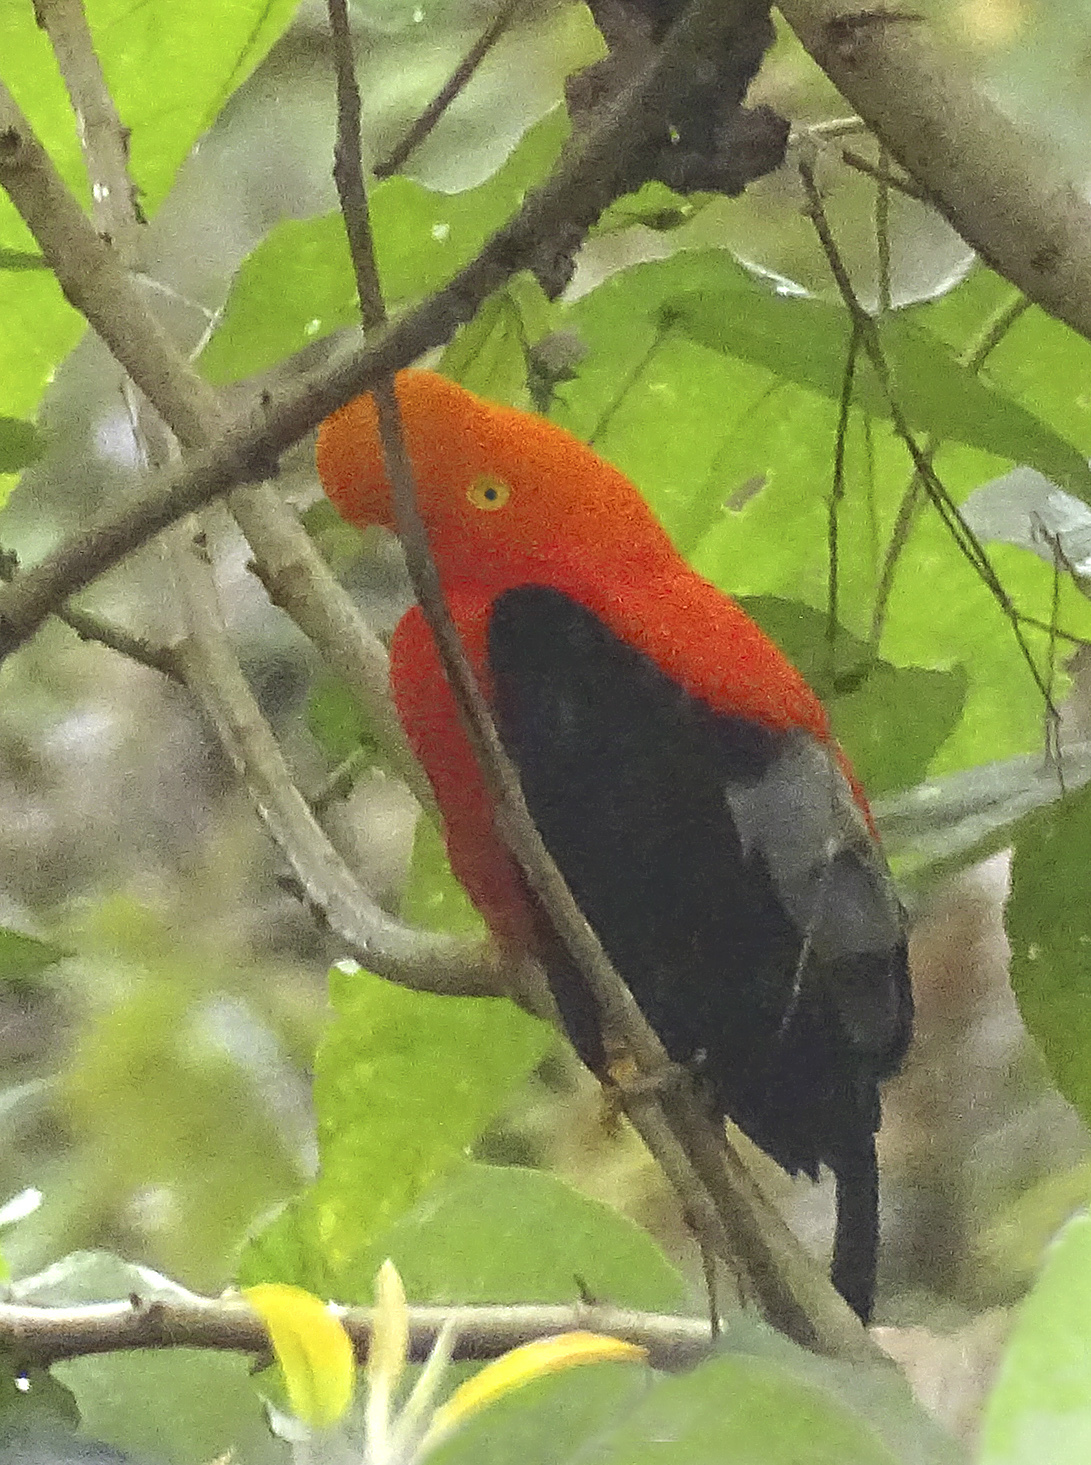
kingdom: Animalia
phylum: Chordata
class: Aves
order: Passeriformes
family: Cotingidae
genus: Rupicola
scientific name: Rupicola peruvianus
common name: Andean cock-of-the-rock
